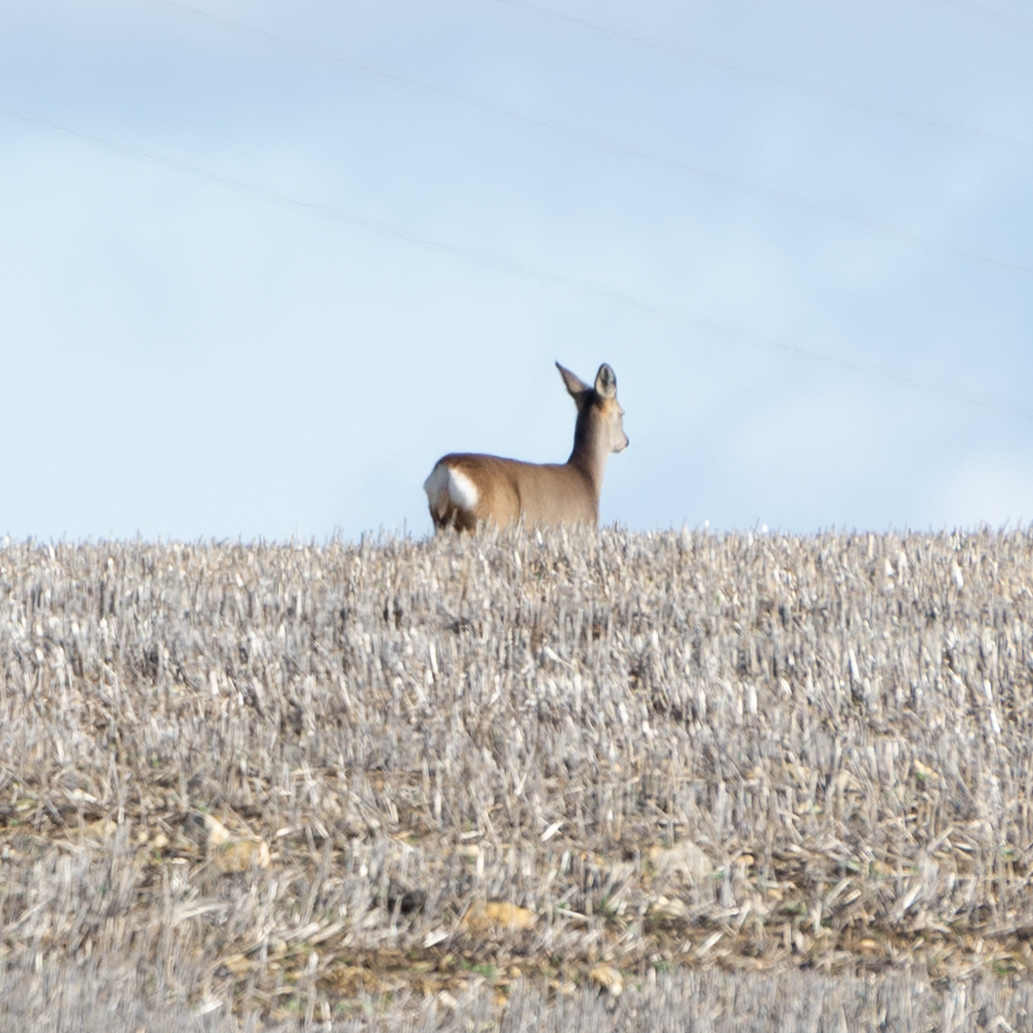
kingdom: Animalia
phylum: Chordata
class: Mammalia
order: Artiodactyla
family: Cervidae
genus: Capreolus
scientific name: Capreolus capreolus
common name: Western roe deer
